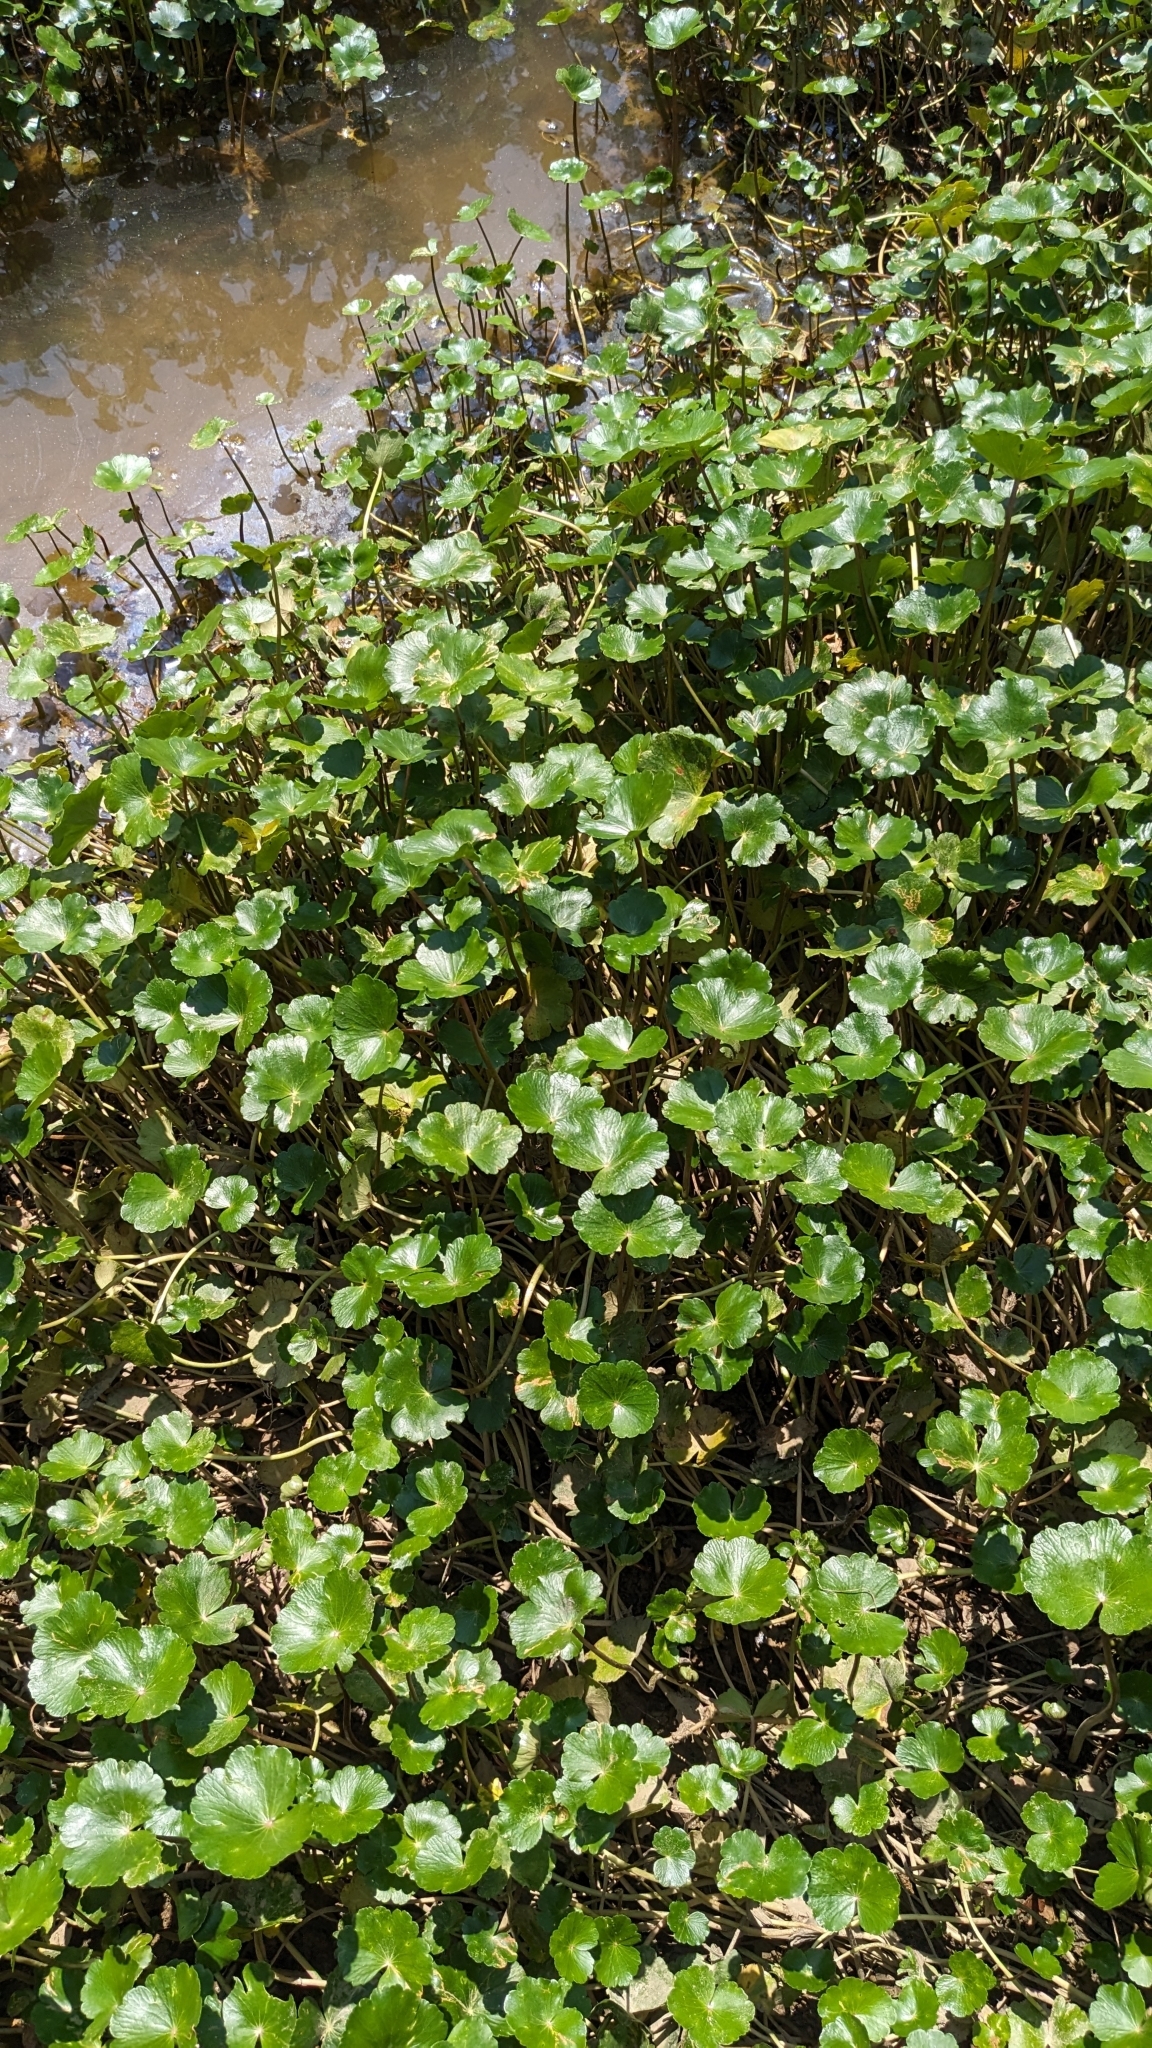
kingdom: Plantae
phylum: Tracheophyta
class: Magnoliopsida
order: Apiales
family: Araliaceae
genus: Hydrocotyle
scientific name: Hydrocotyle ranunculoides
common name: Floating pennywort
